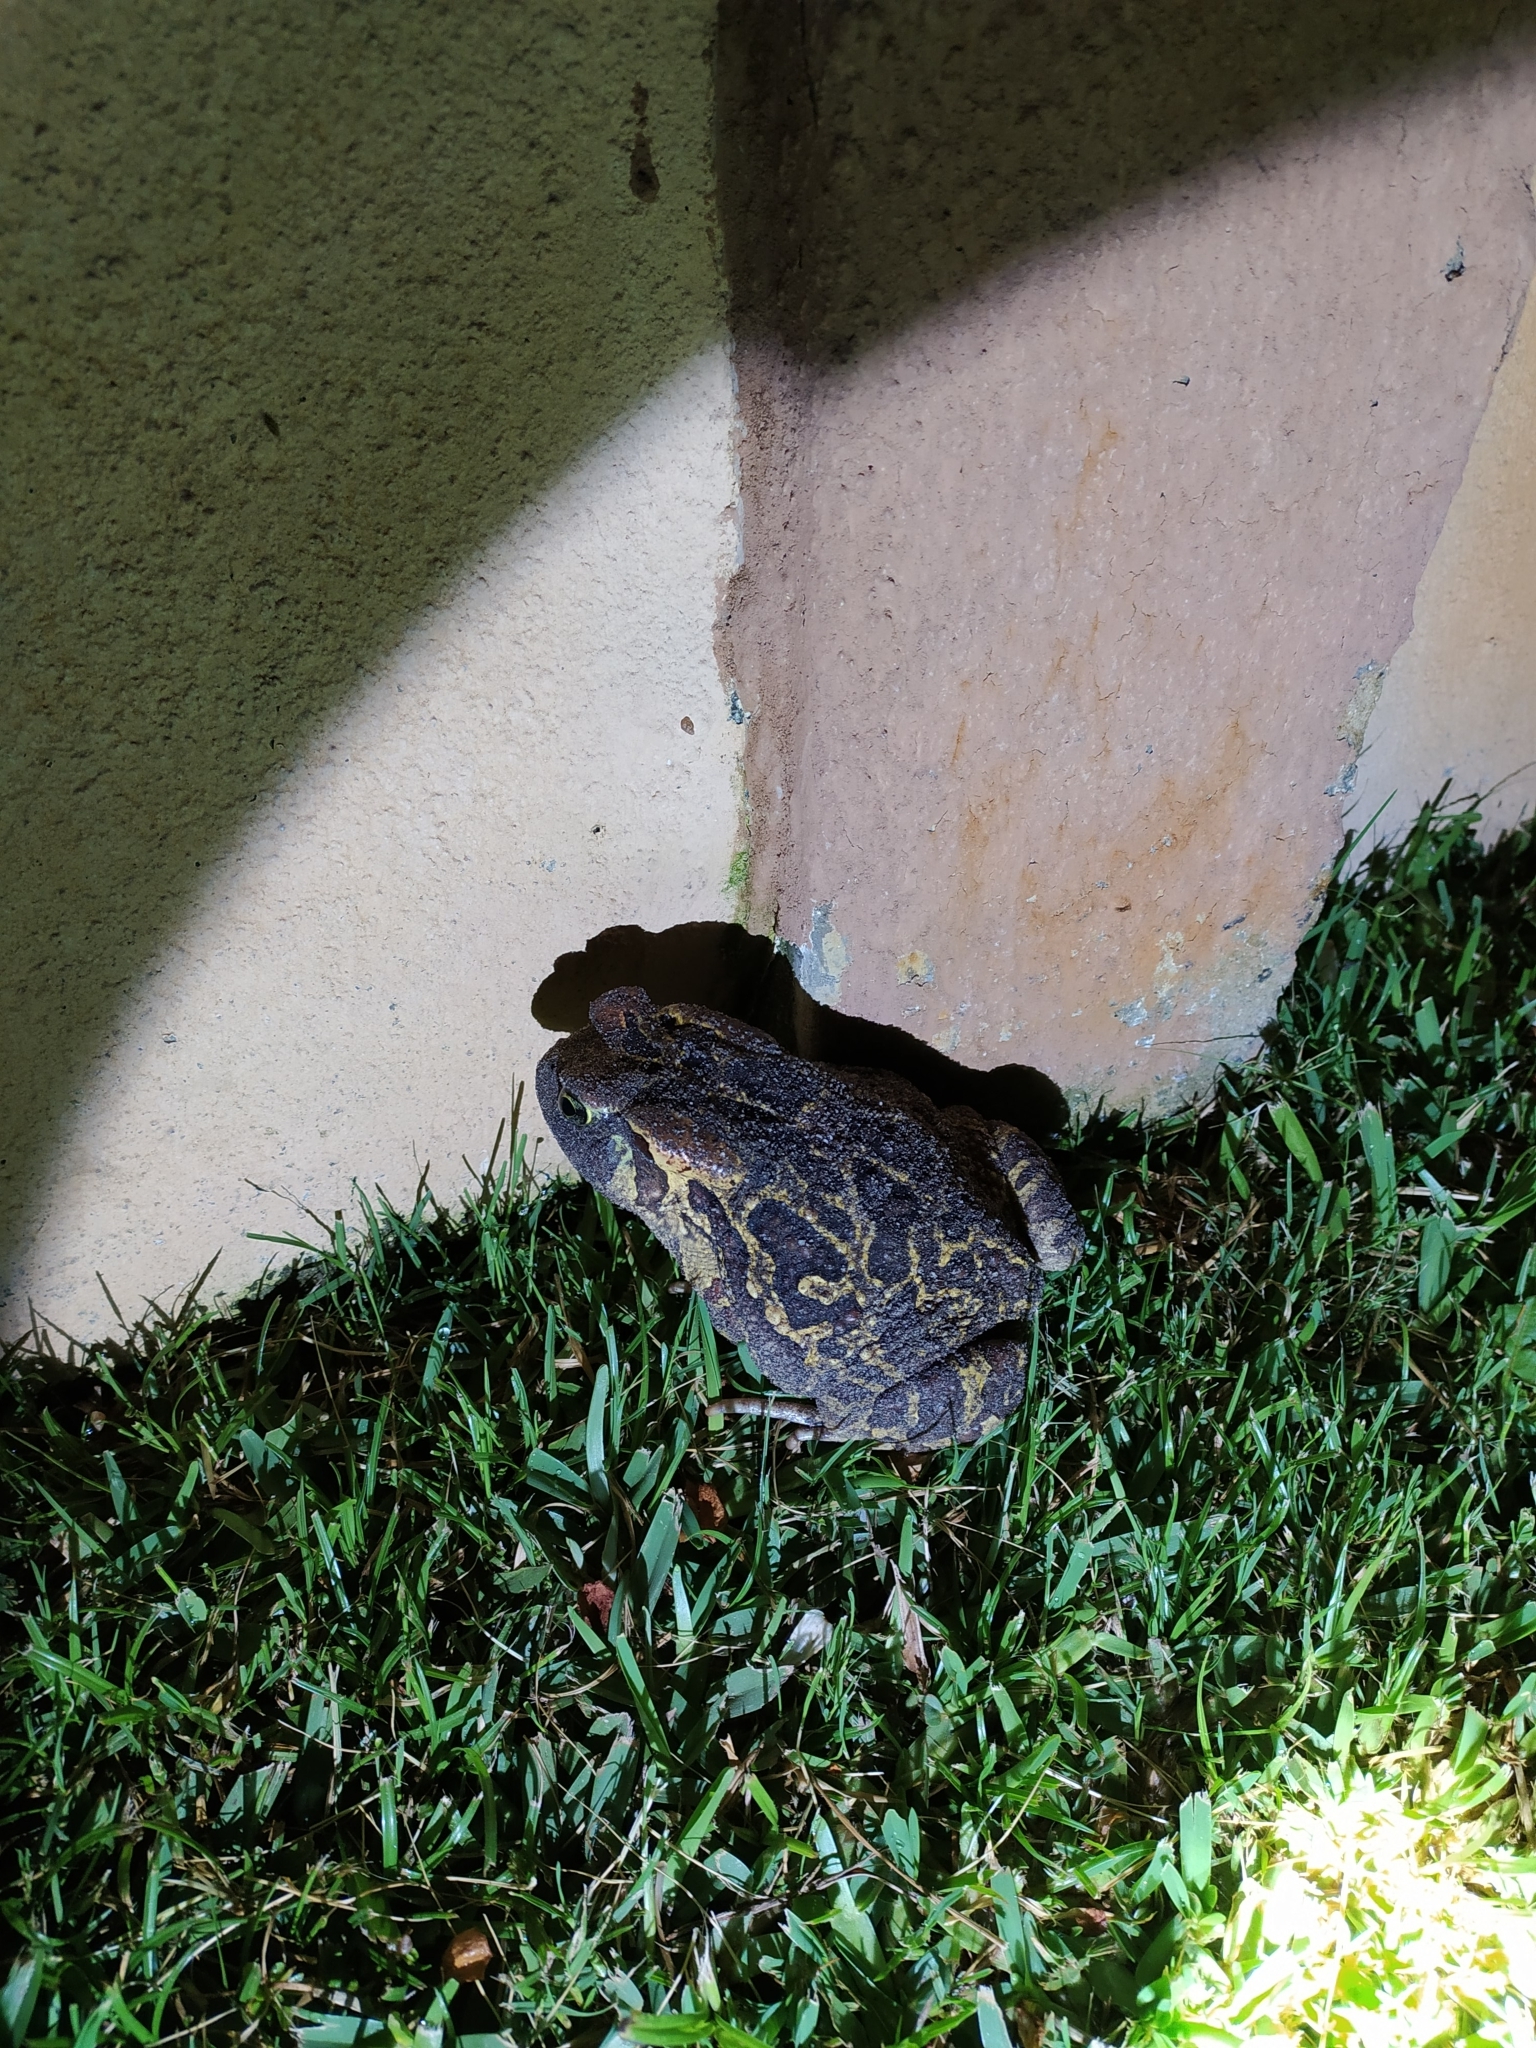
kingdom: Animalia
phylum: Chordata
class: Amphibia
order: Anura
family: Bufonidae
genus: Sclerophrys
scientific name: Sclerophrys pantherina
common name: Panther toad
